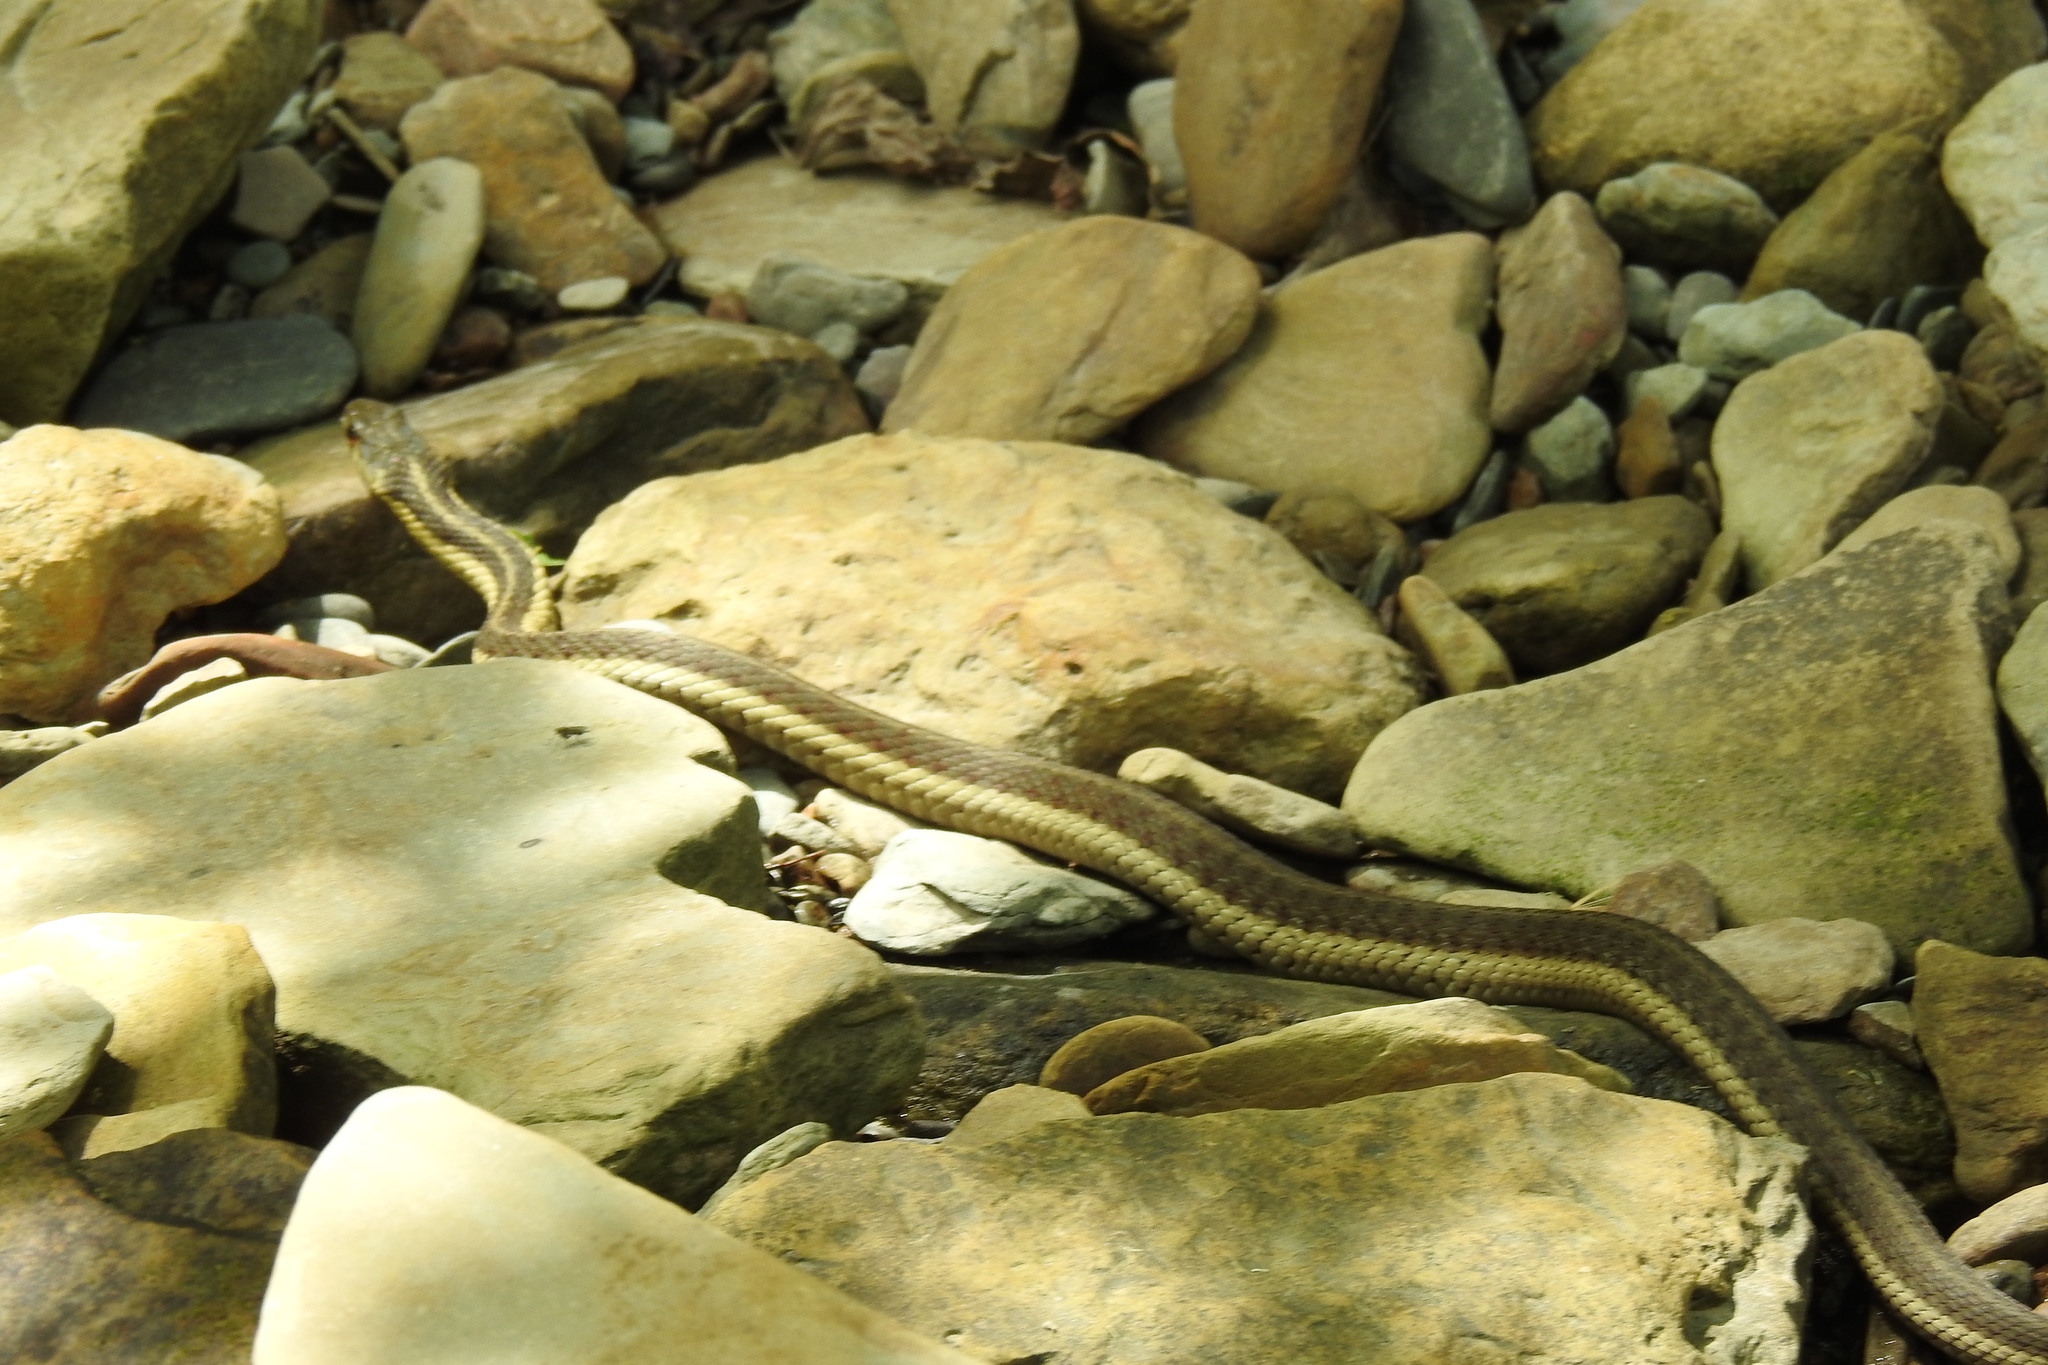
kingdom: Animalia
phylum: Chordata
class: Squamata
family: Colubridae
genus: Thamnophis
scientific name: Thamnophis sirtalis
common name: Common garter snake
